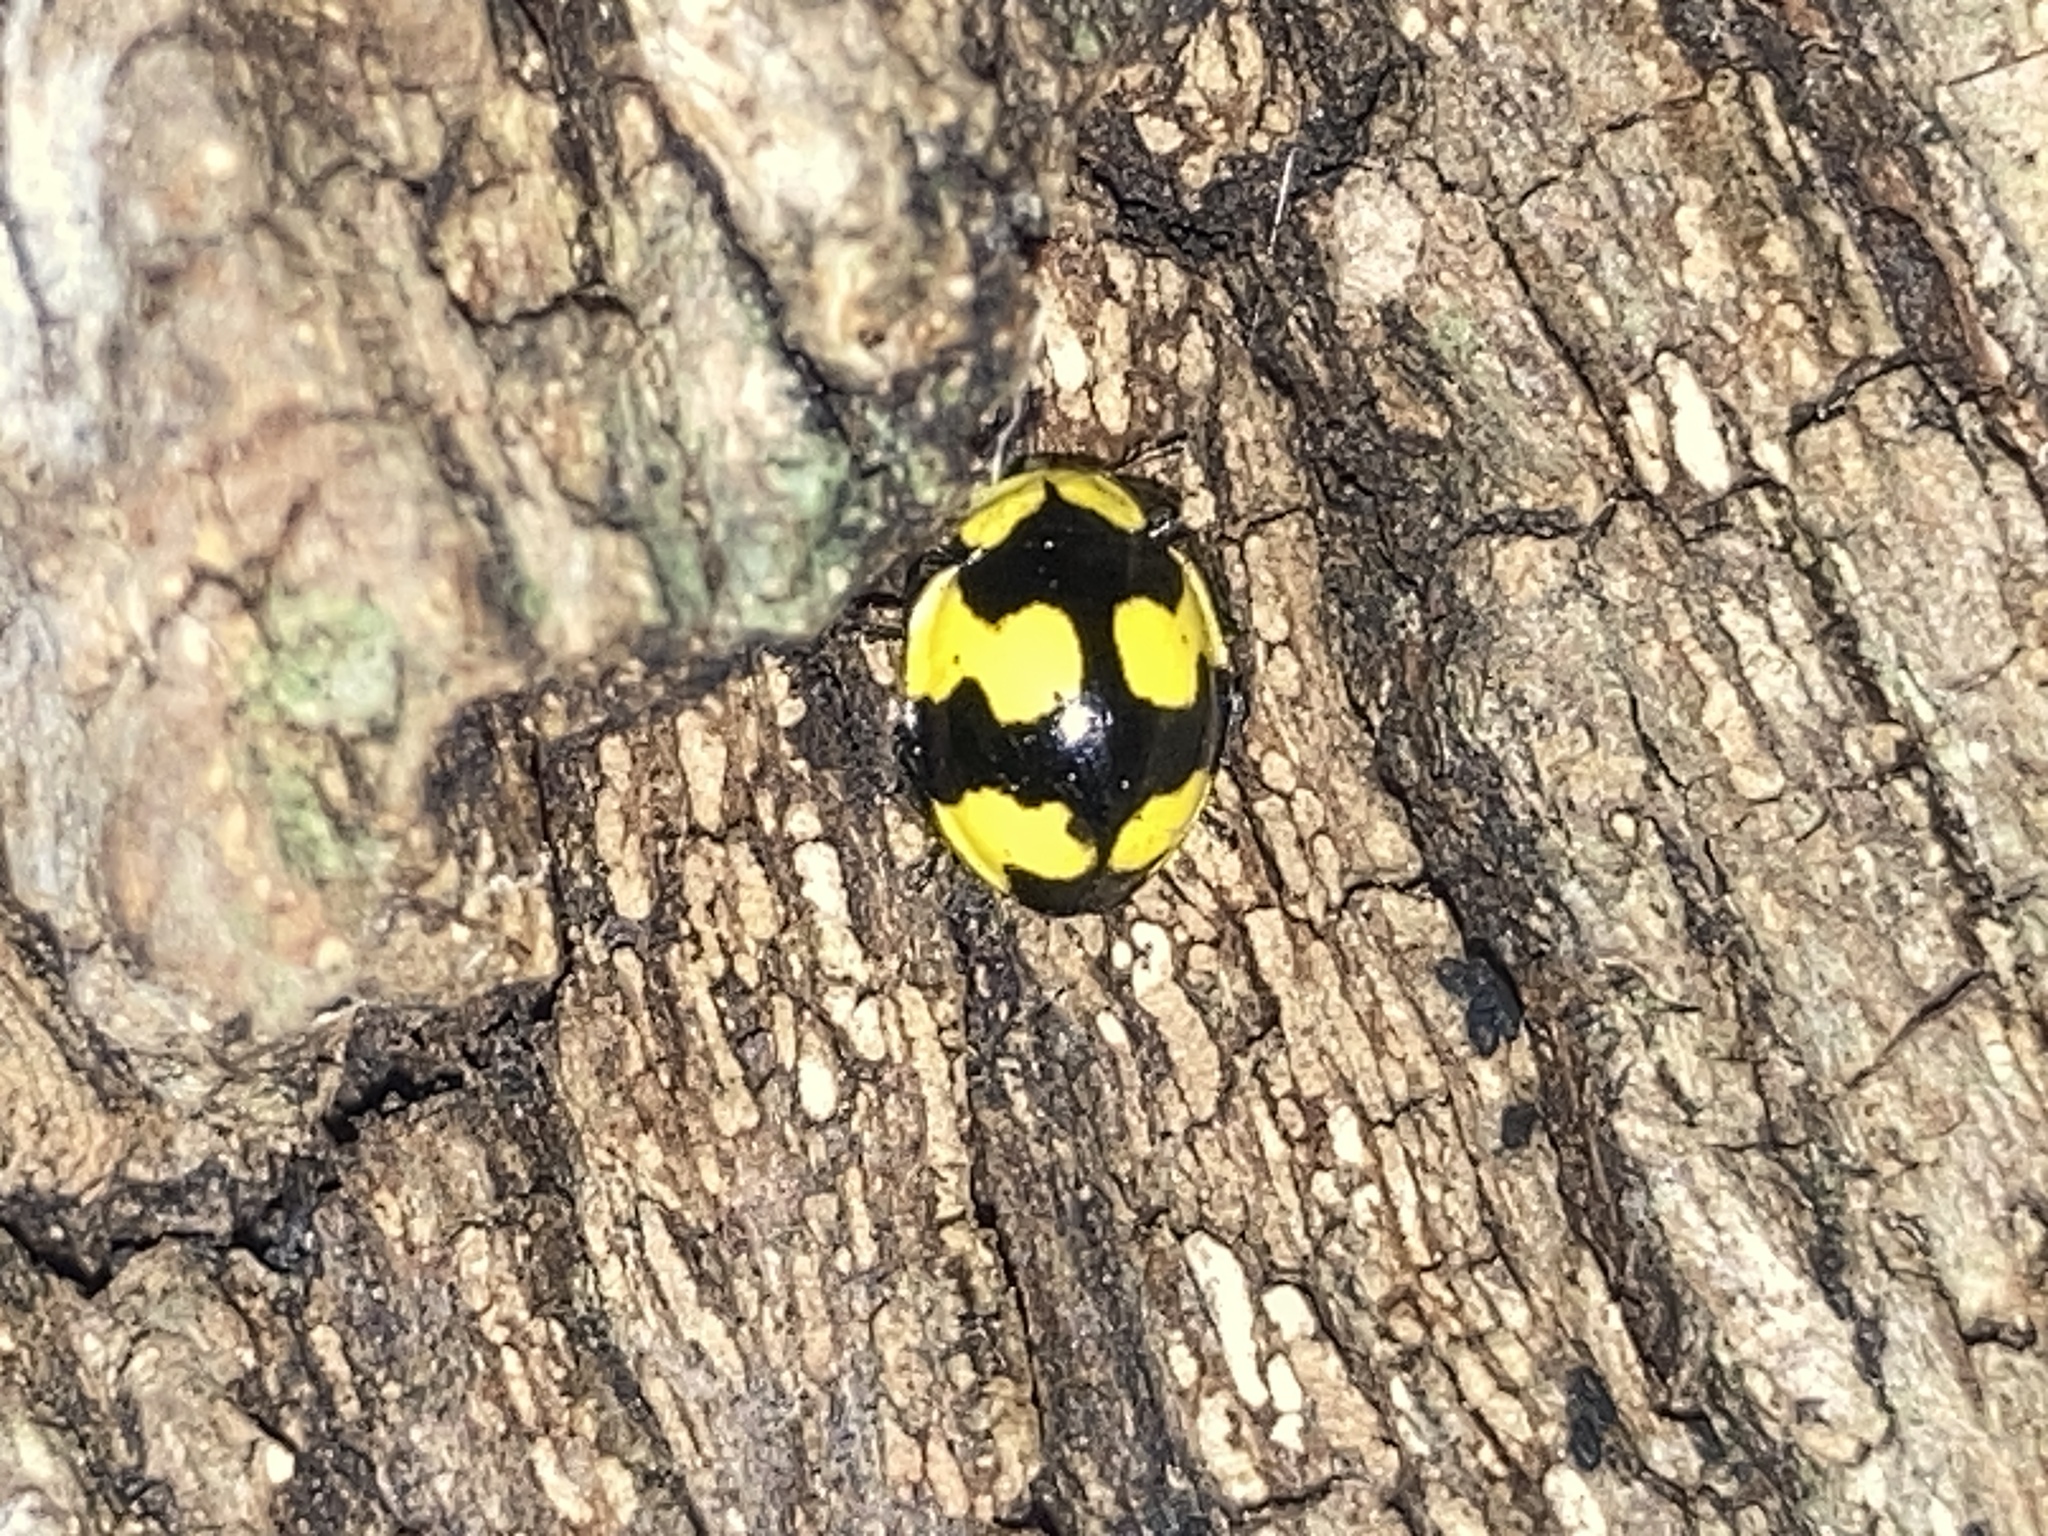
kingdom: Animalia
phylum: Arthropoda
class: Insecta
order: Coleoptera
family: Coccinellidae
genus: Illeis
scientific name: Illeis galbula
